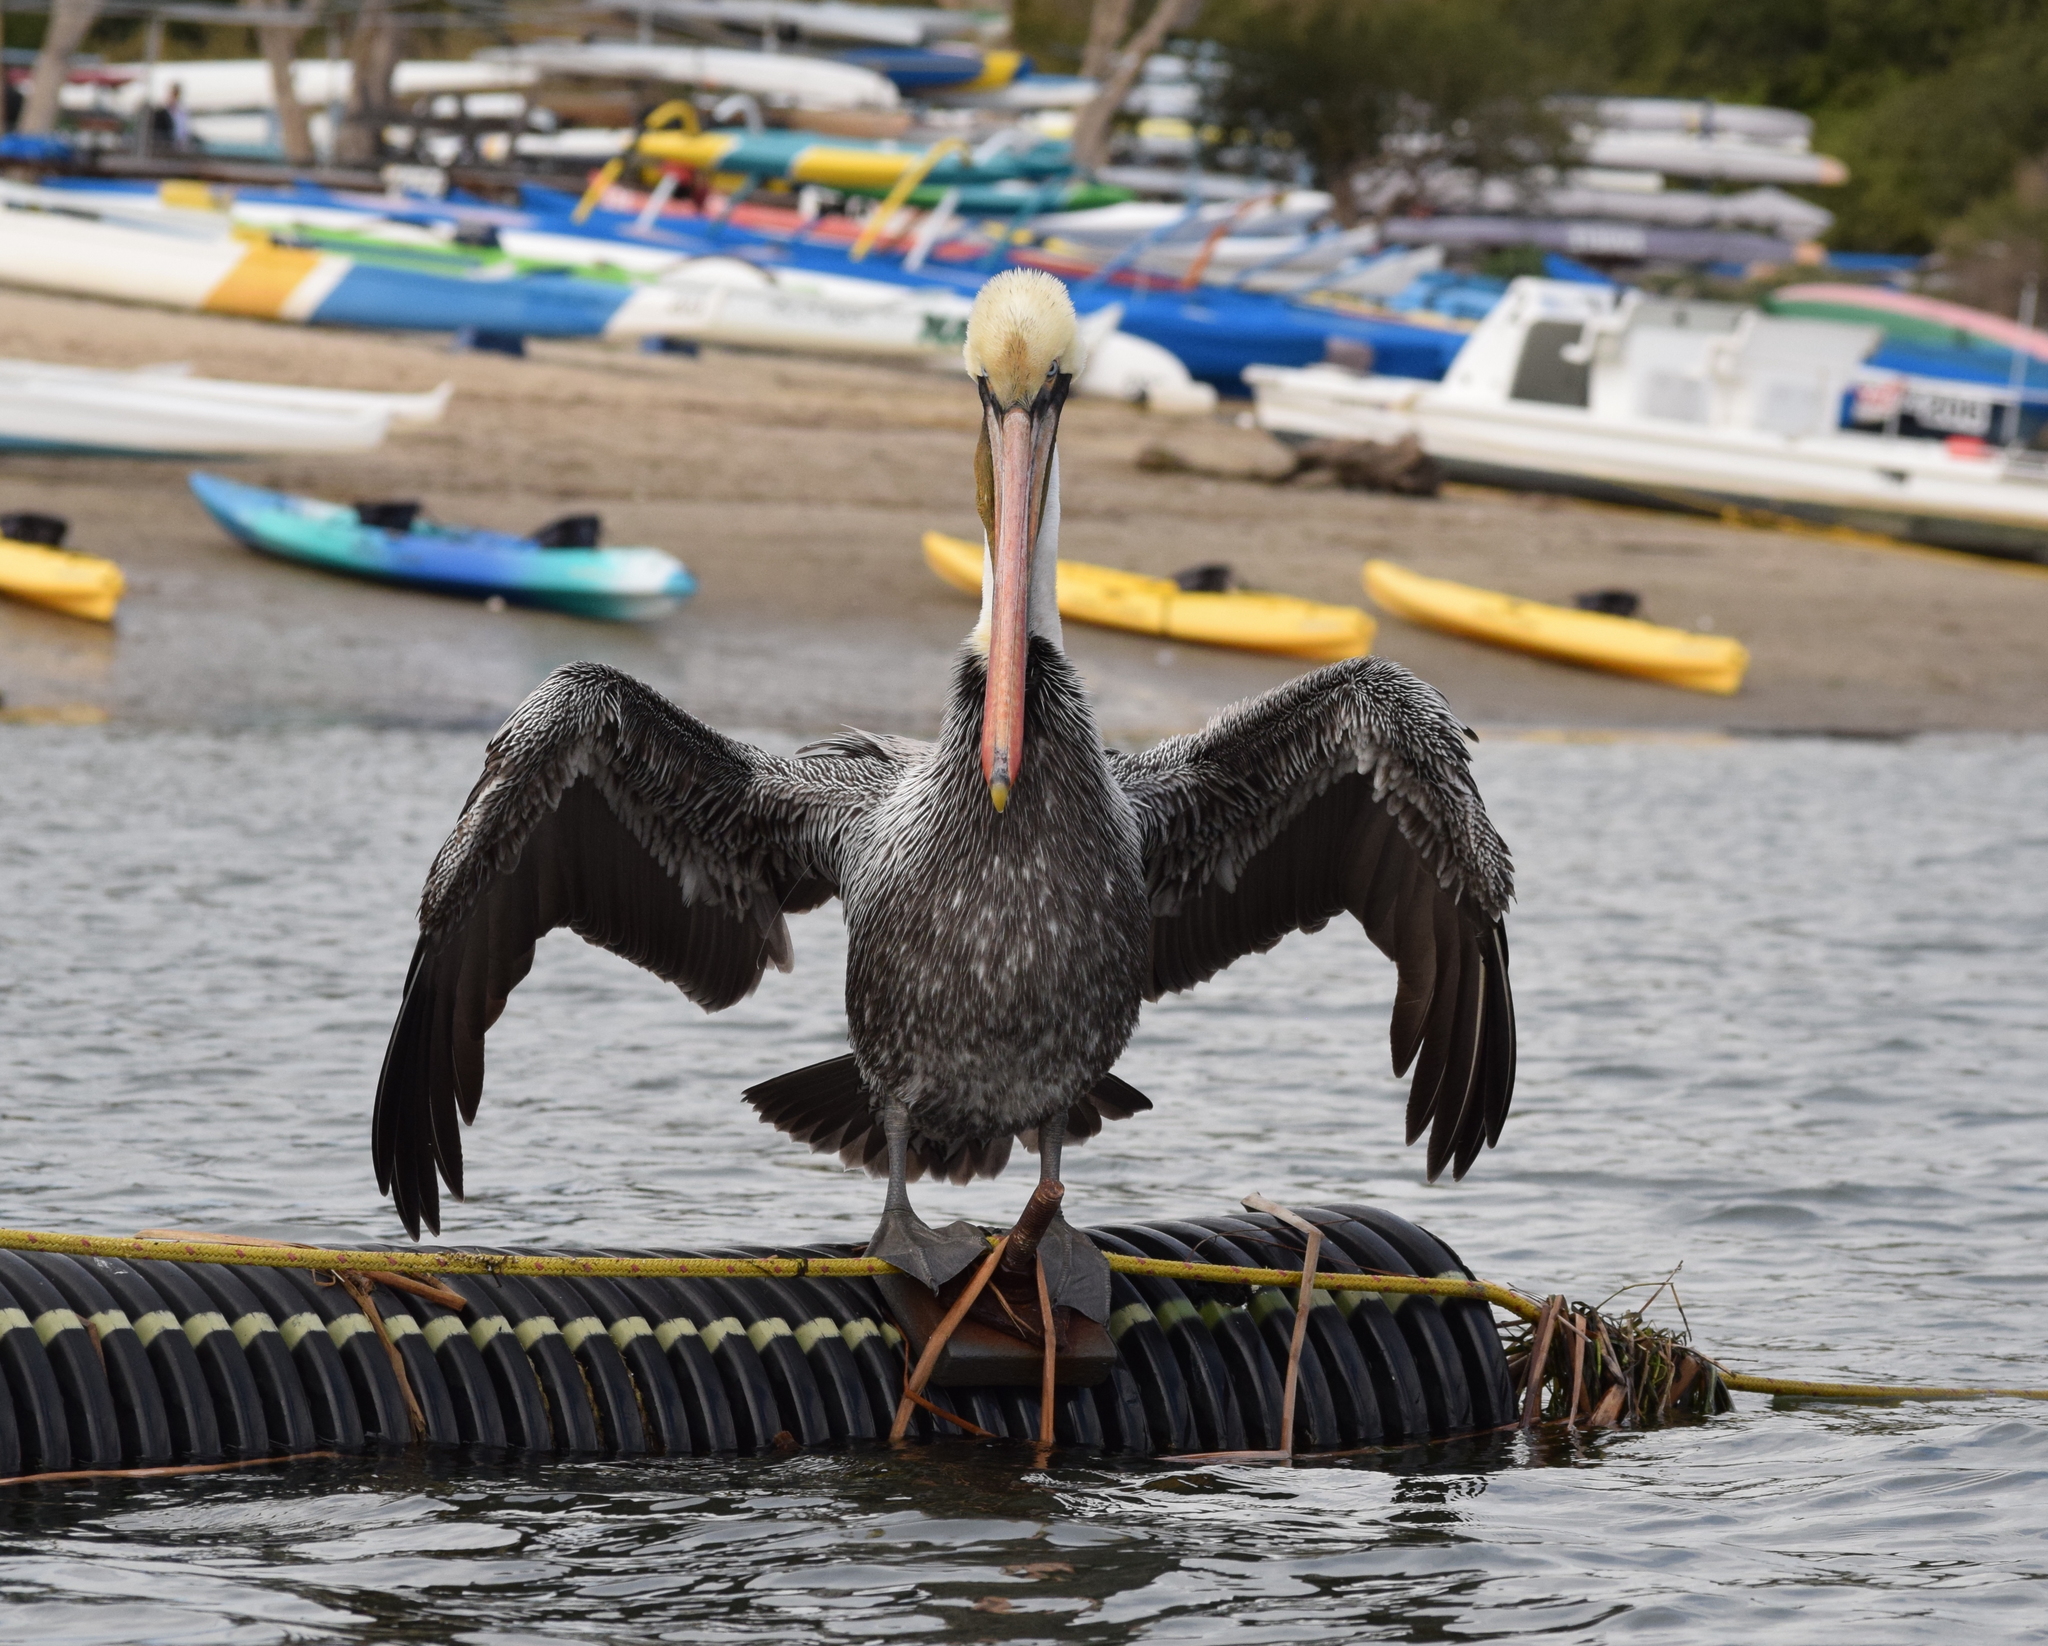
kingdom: Animalia
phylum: Chordata
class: Aves
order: Pelecaniformes
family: Pelecanidae
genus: Pelecanus
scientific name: Pelecanus occidentalis
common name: Brown pelican
